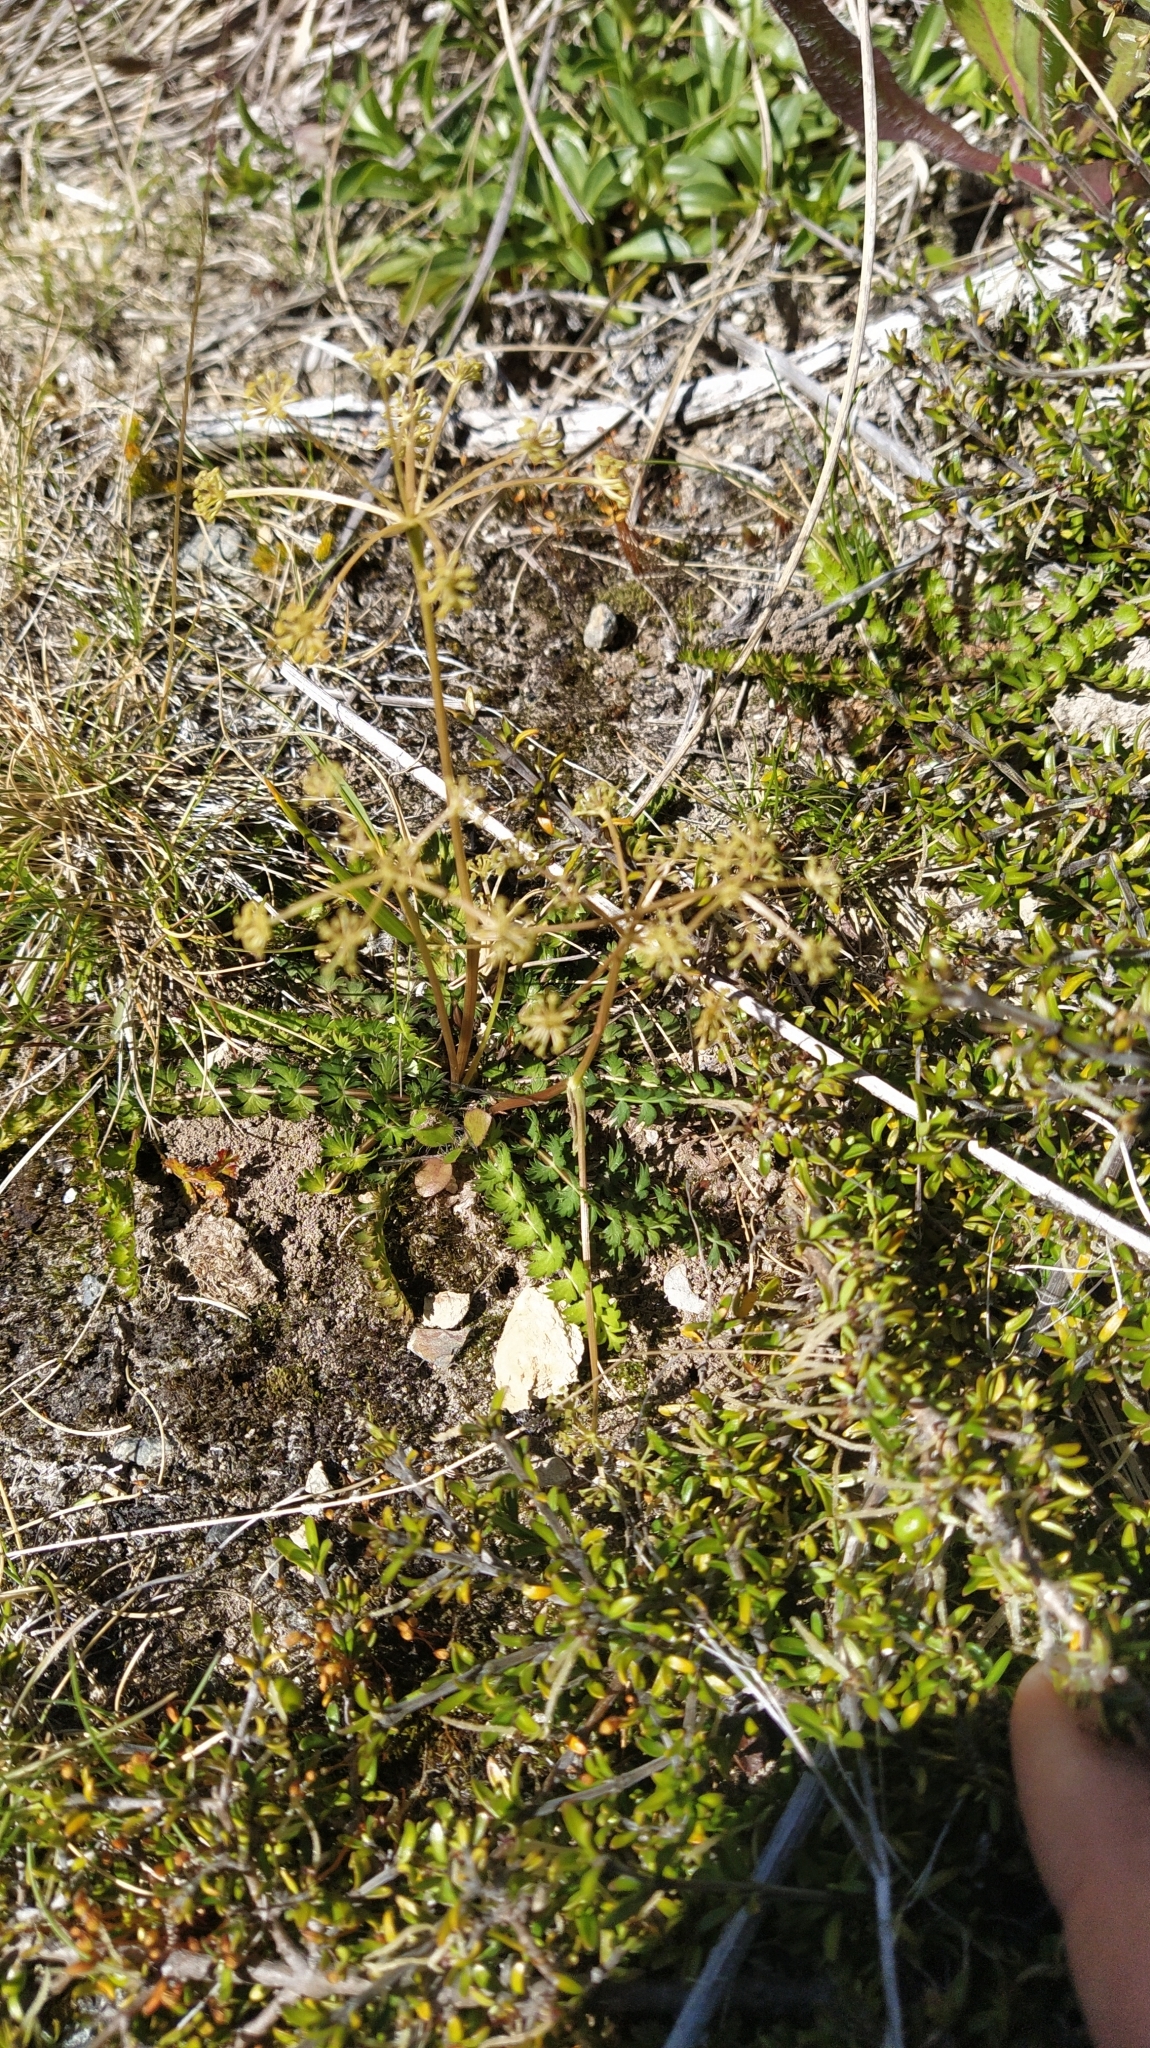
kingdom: Plantae
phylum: Tracheophyta
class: Magnoliopsida
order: Apiales
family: Apiaceae
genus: Anisotome
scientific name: Anisotome aromatica
